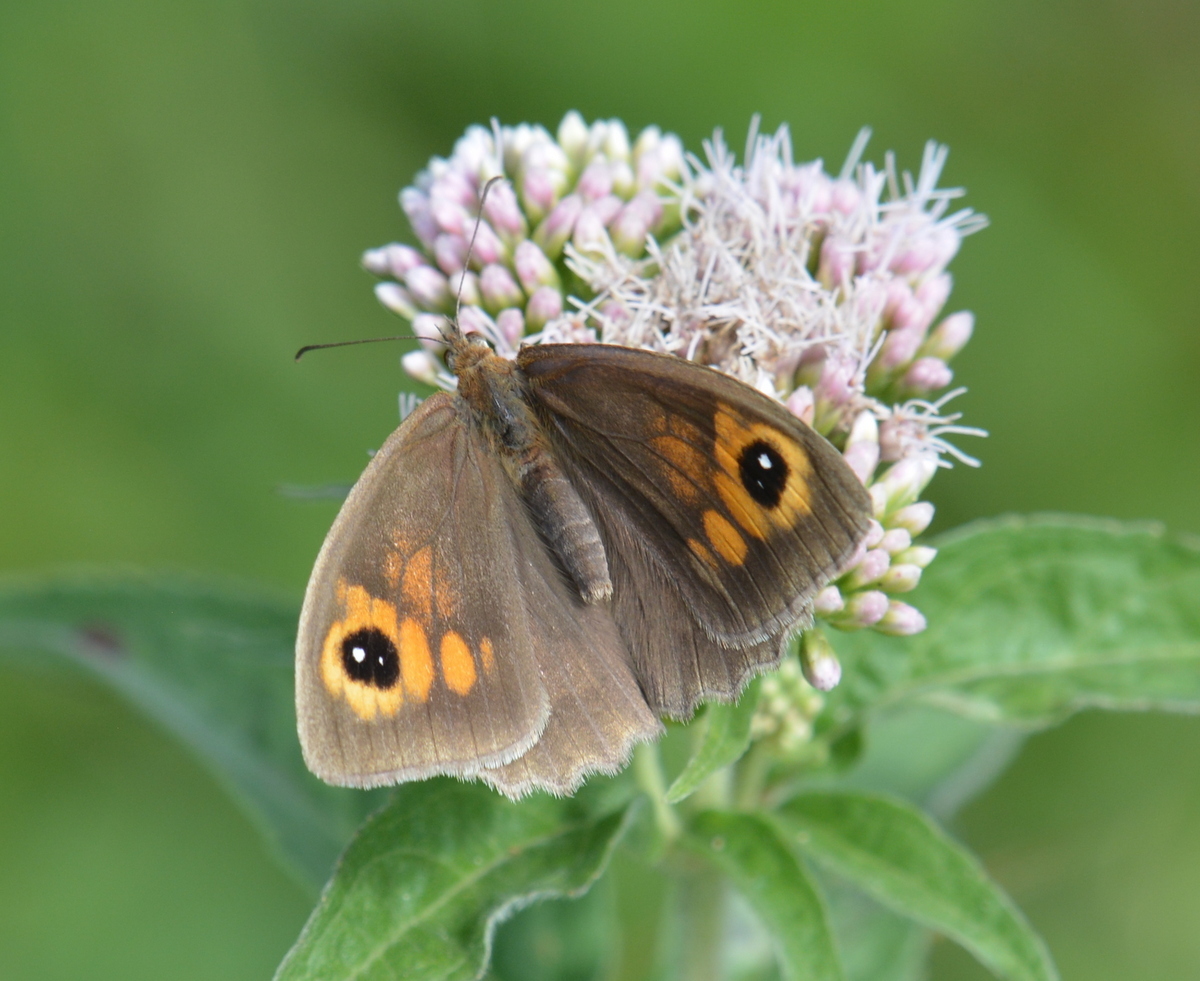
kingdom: Animalia
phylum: Arthropoda
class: Insecta
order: Lepidoptera
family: Nymphalidae
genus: Maniola
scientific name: Maniola jurtina
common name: Meadow brown
